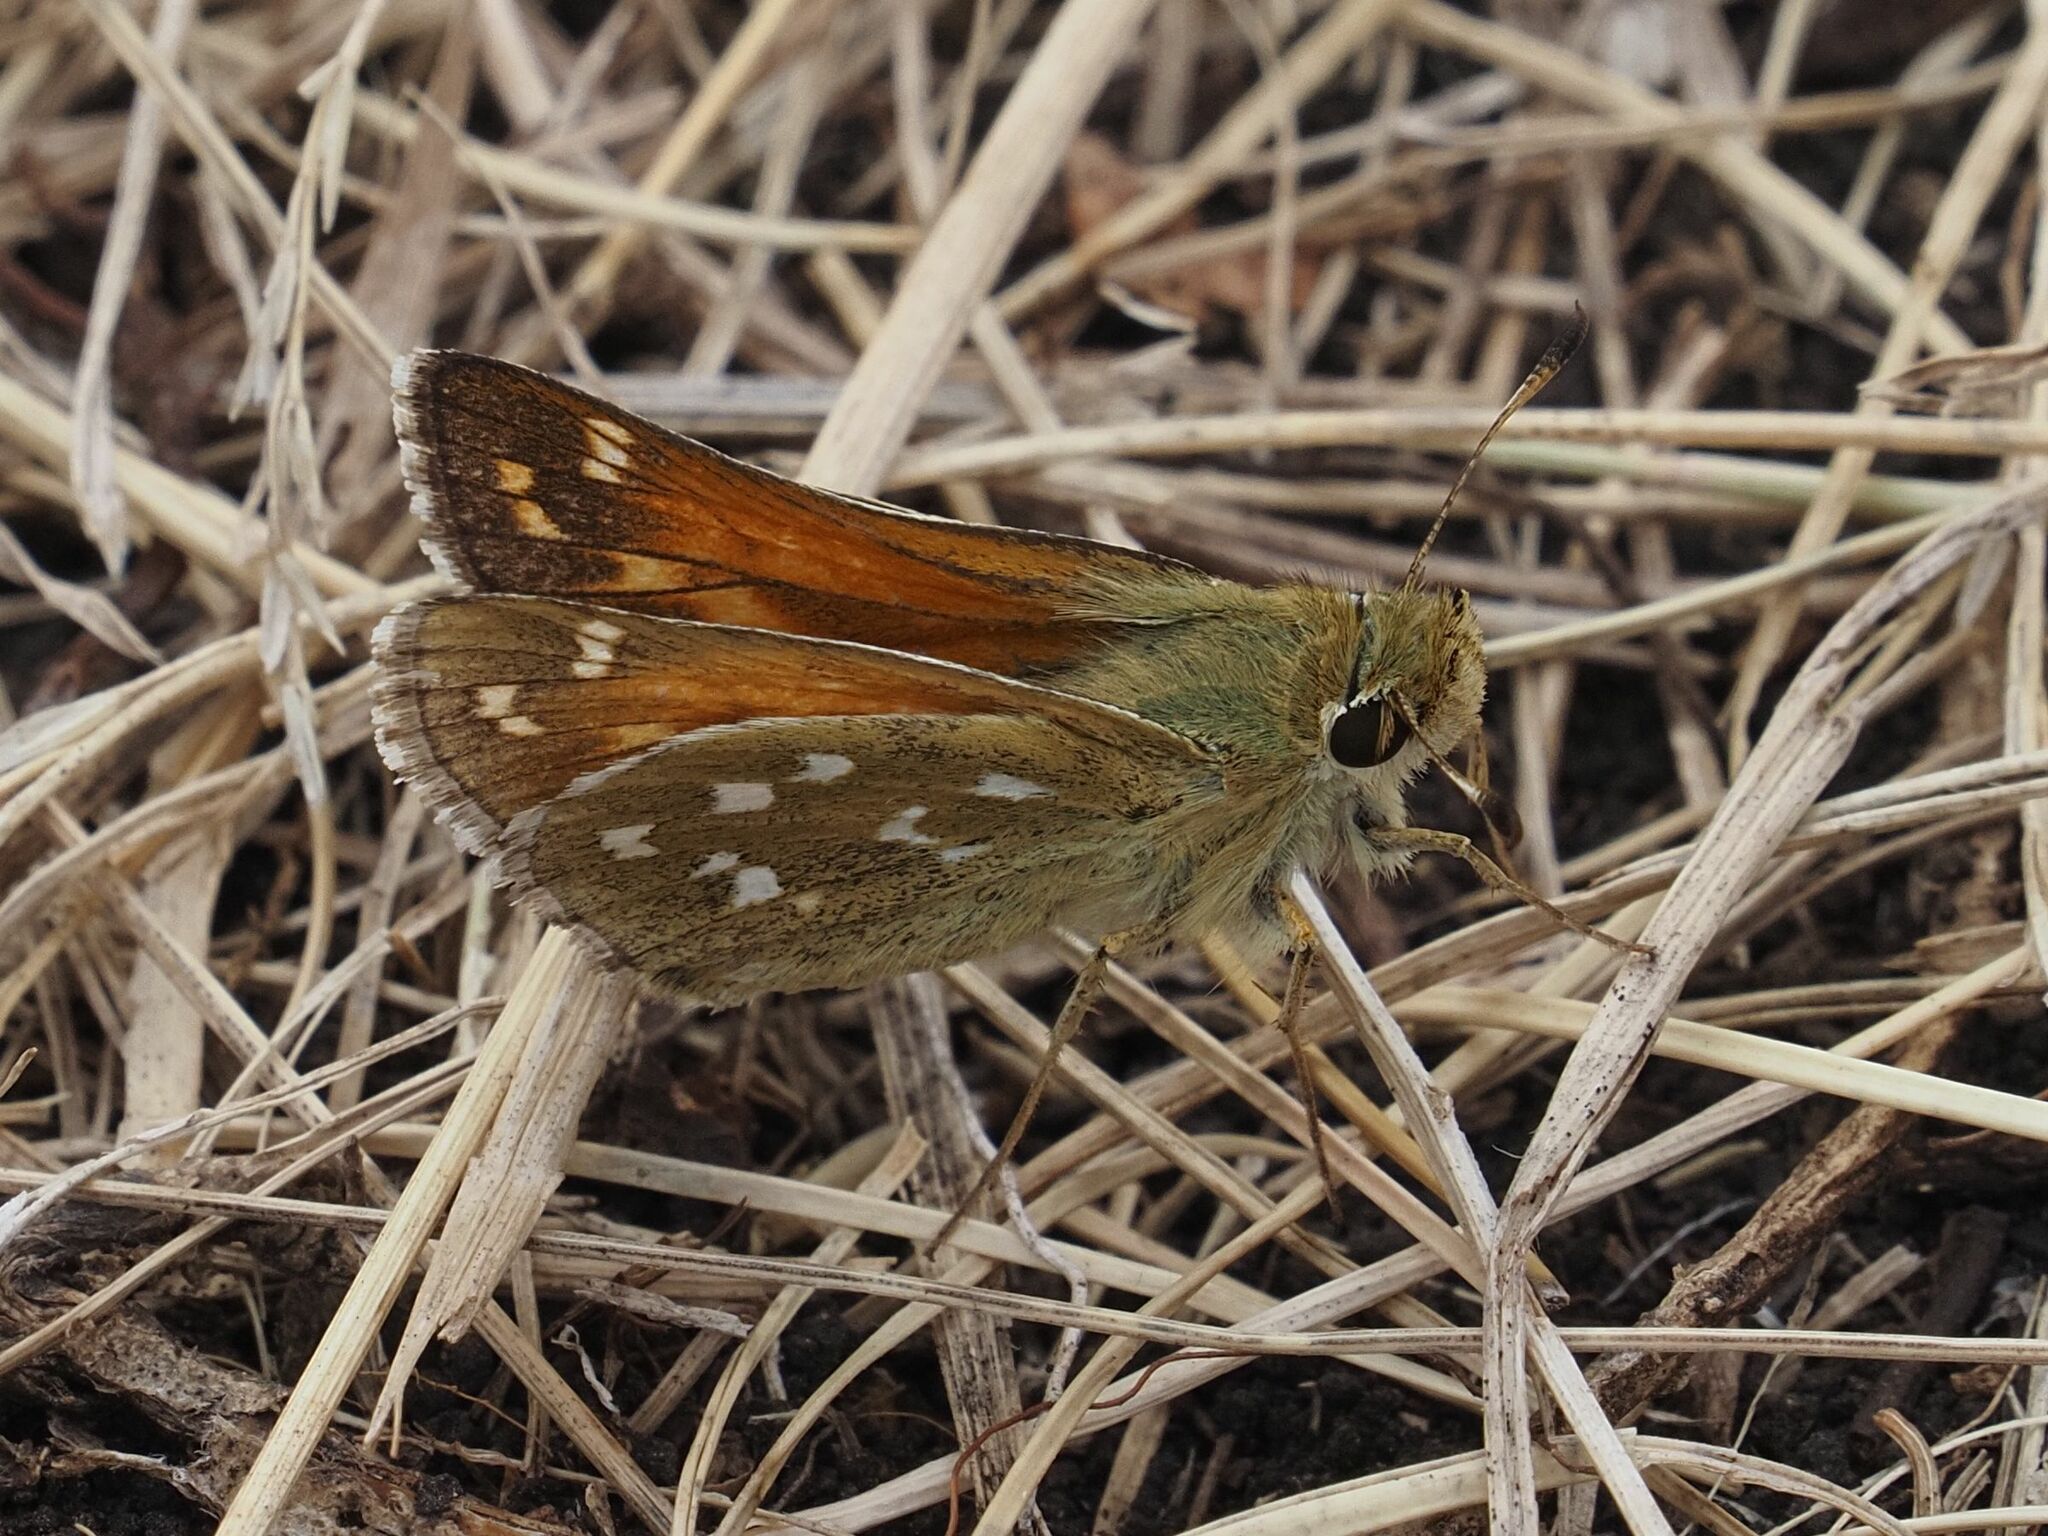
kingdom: Animalia
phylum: Arthropoda
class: Insecta
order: Lepidoptera
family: Hesperiidae
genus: Hesperia
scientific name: Hesperia comma
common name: Common branded skipper
